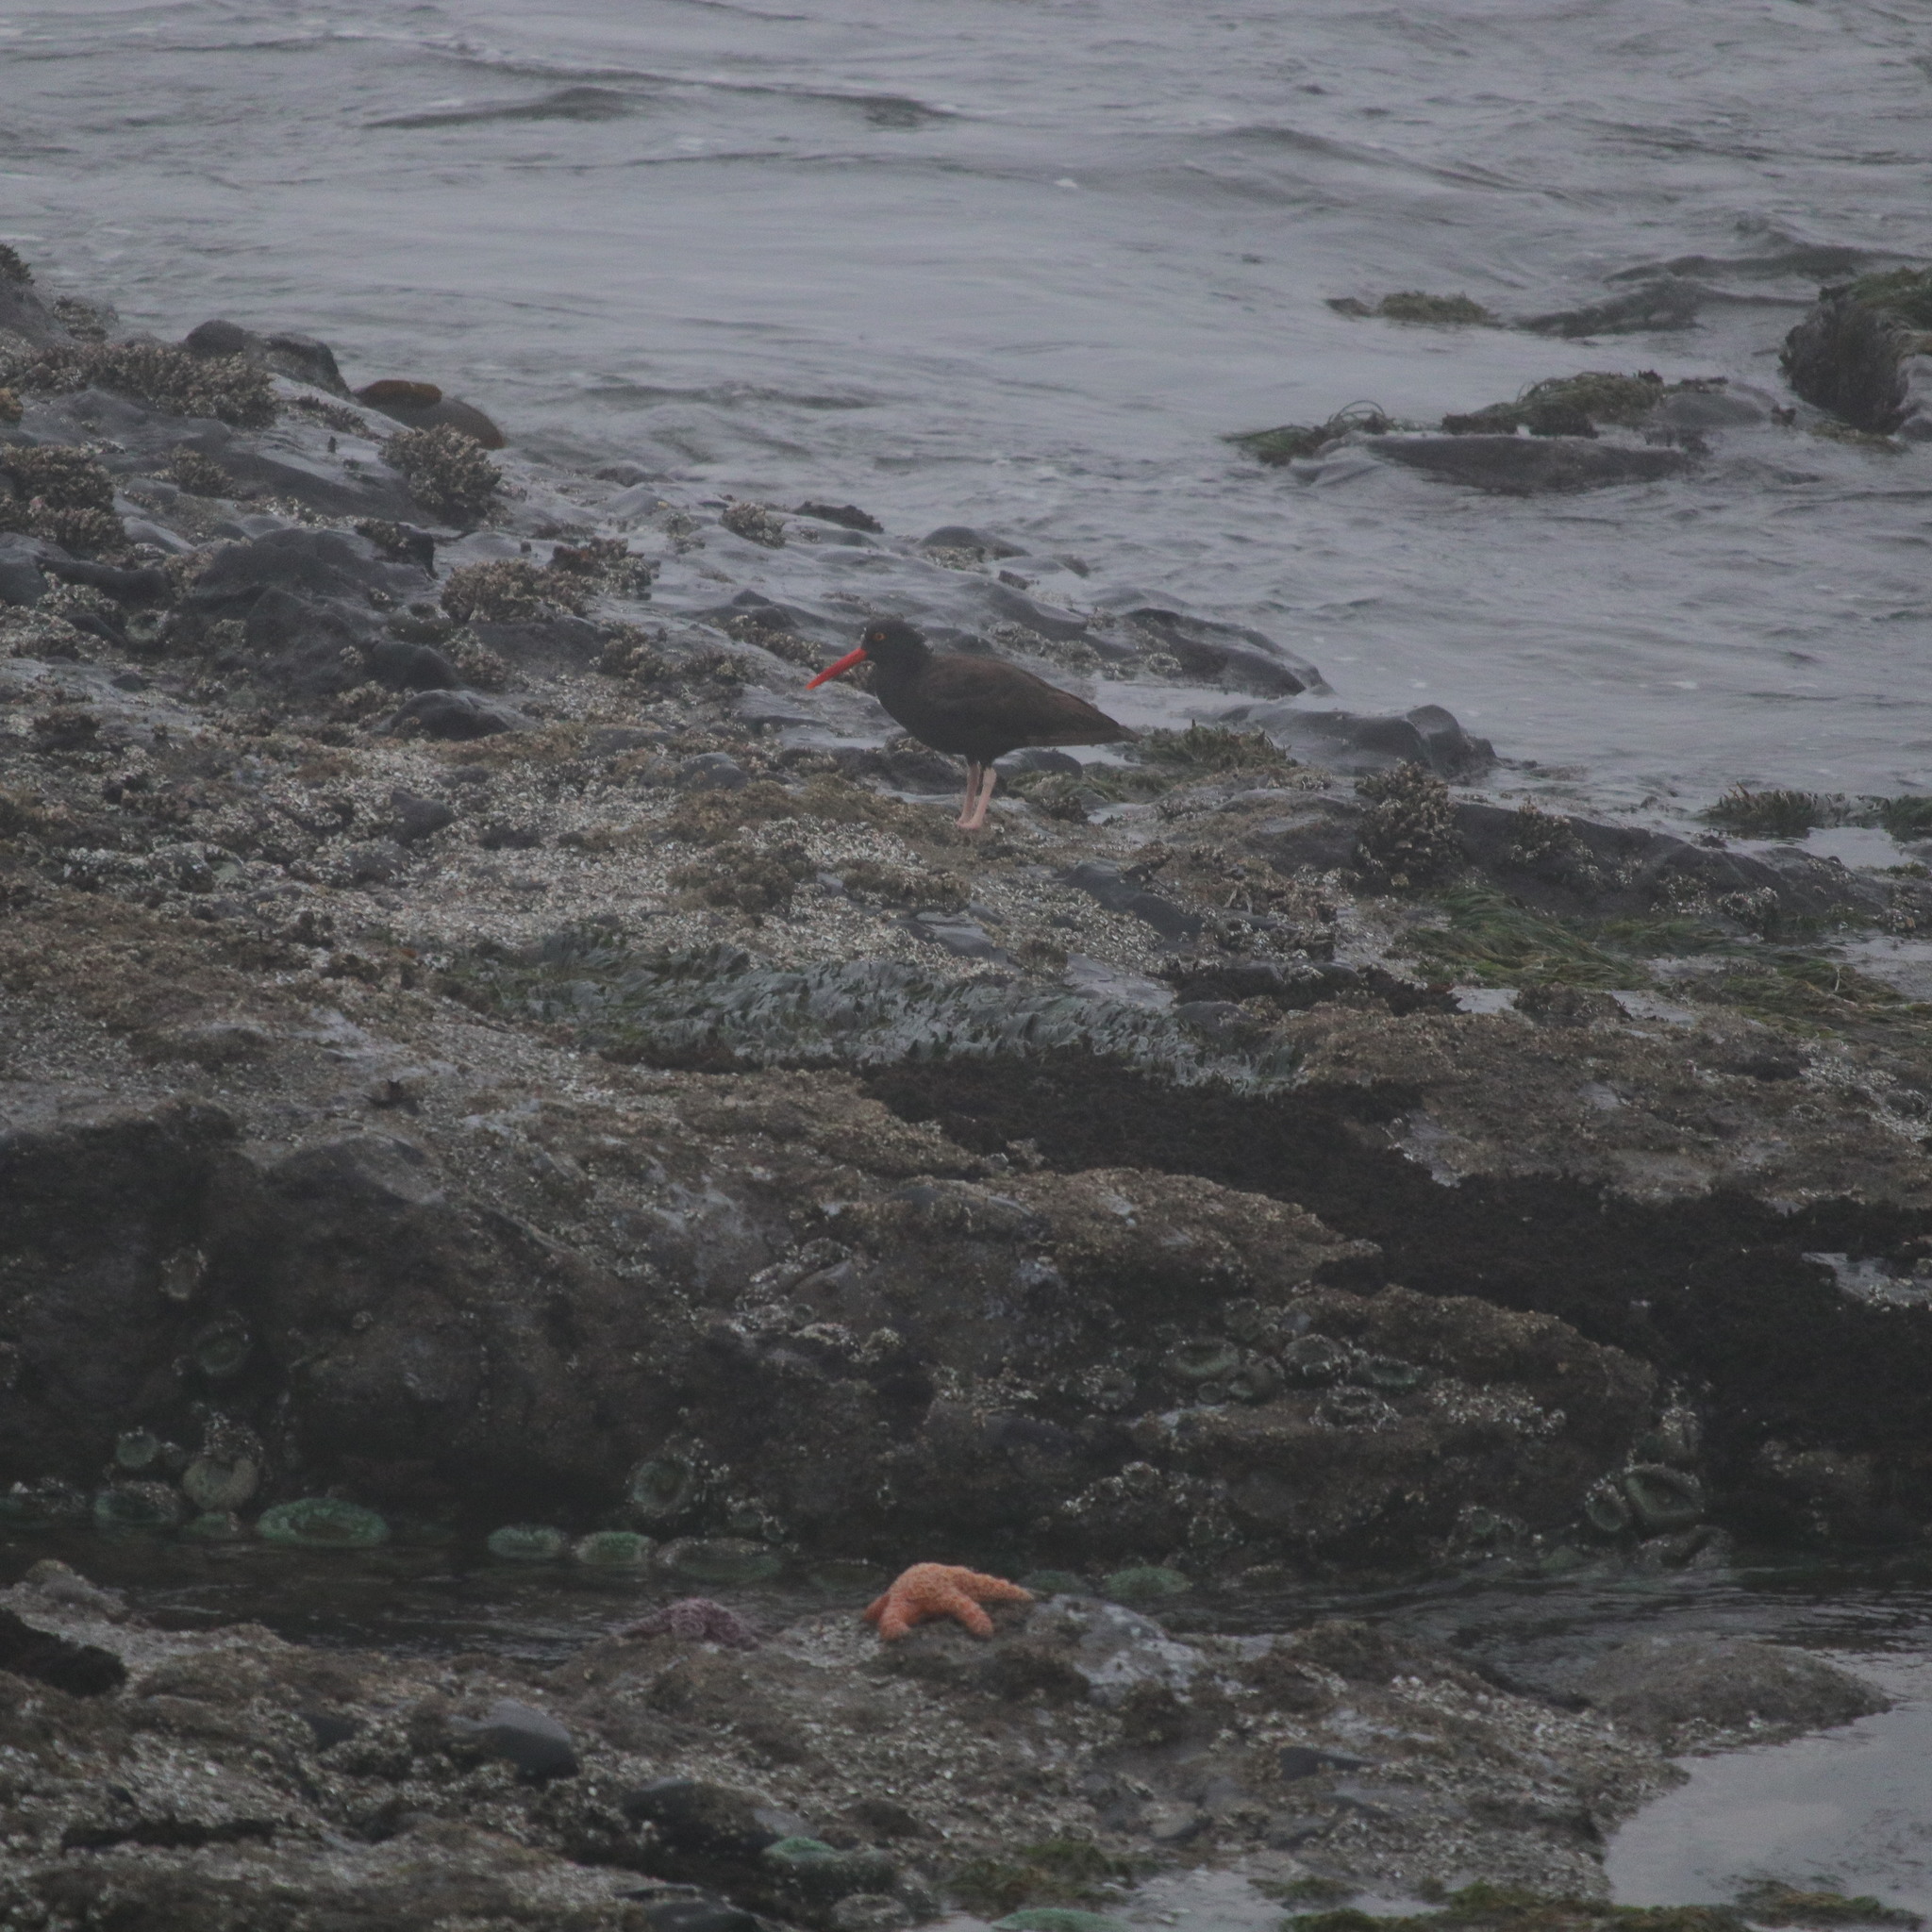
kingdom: Animalia
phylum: Chordata
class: Aves
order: Charadriiformes
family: Haematopodidae
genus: Haematopus
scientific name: Haematopus bachmani
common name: Black oystercatcher
